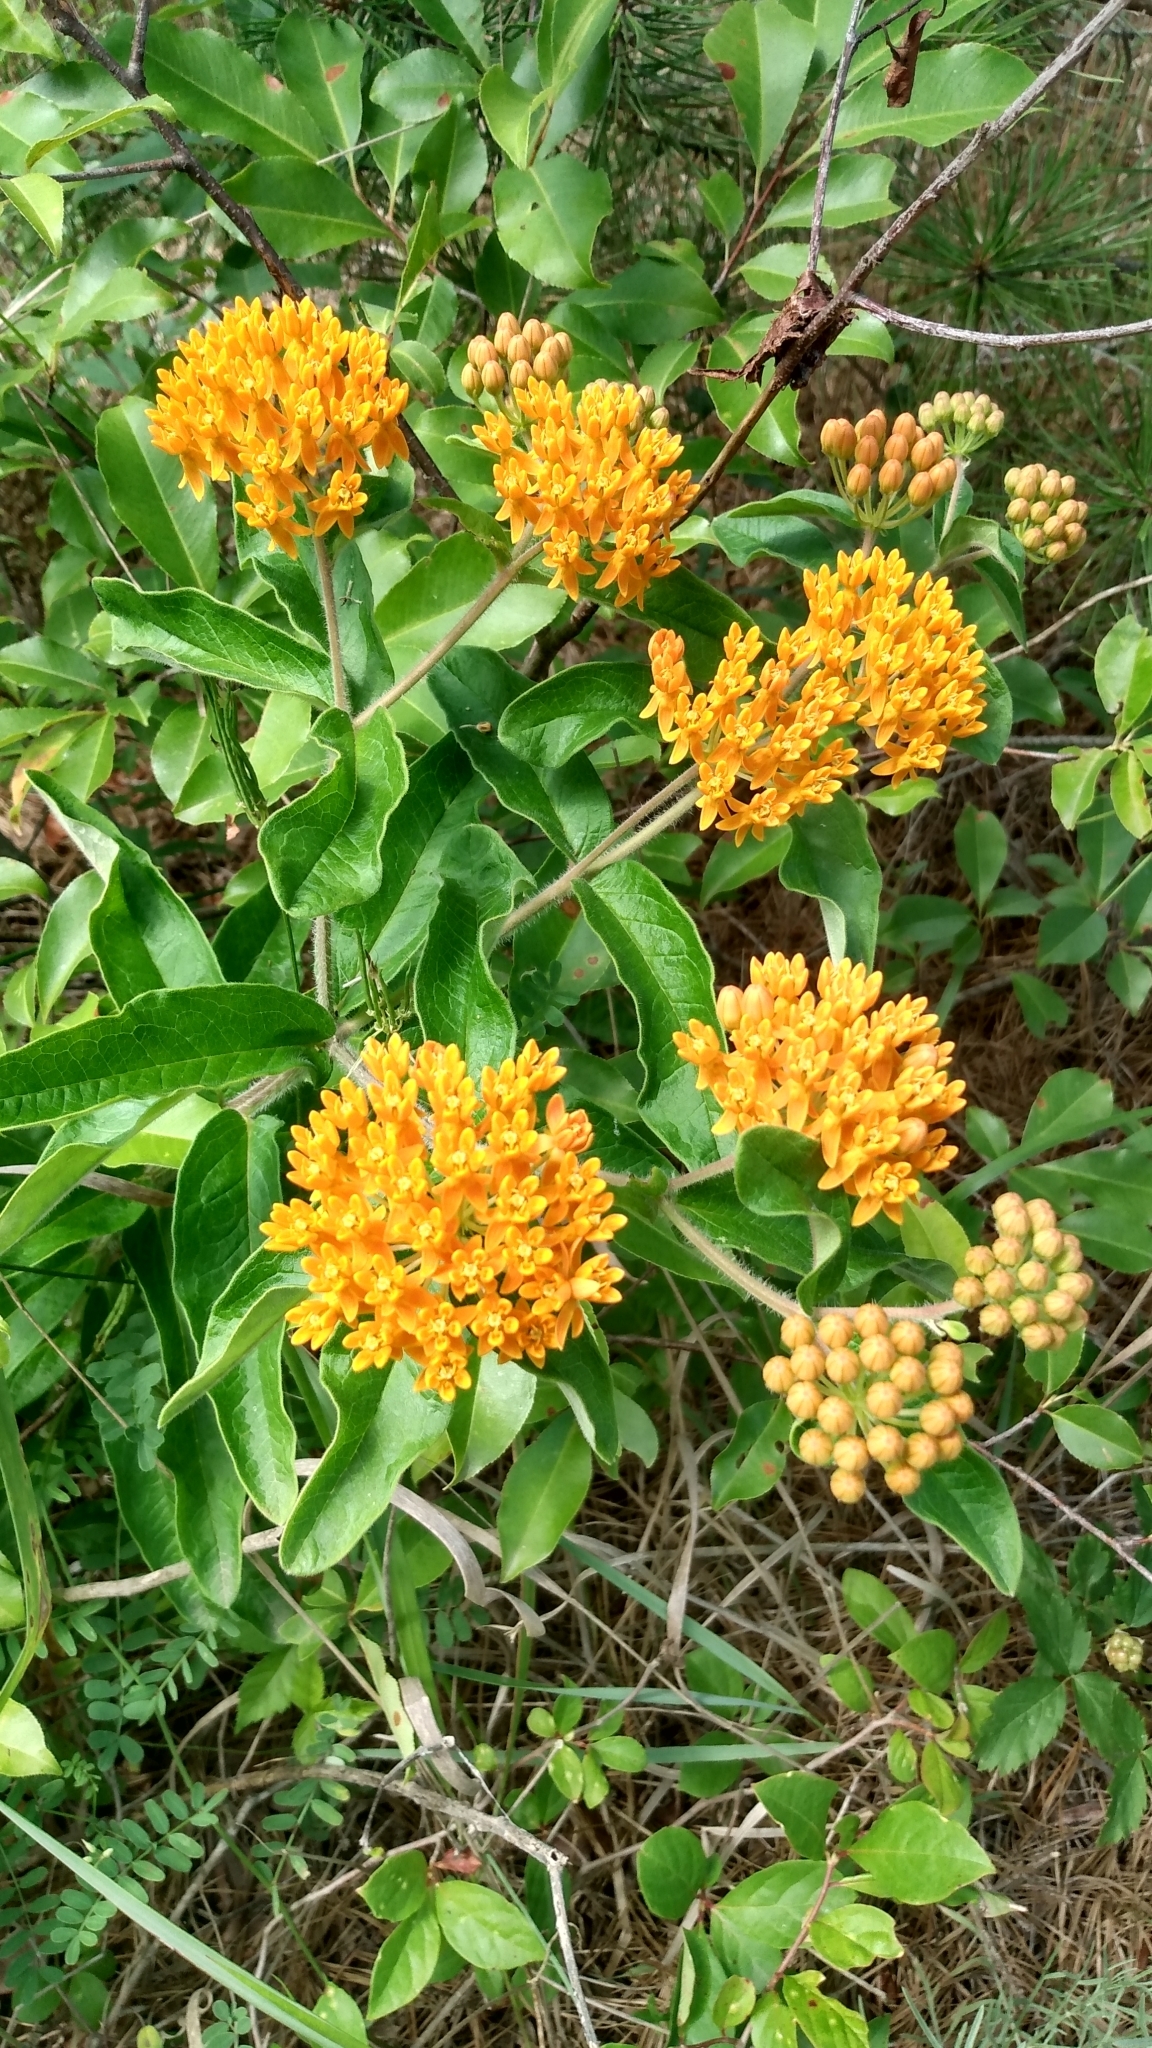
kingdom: Plantae
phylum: Tracheophyta
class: Magnoliopsida
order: Gentianales
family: Apocynaceae
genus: Asclepias
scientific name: Asclepias tuberosa
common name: Butterfly milkweed
